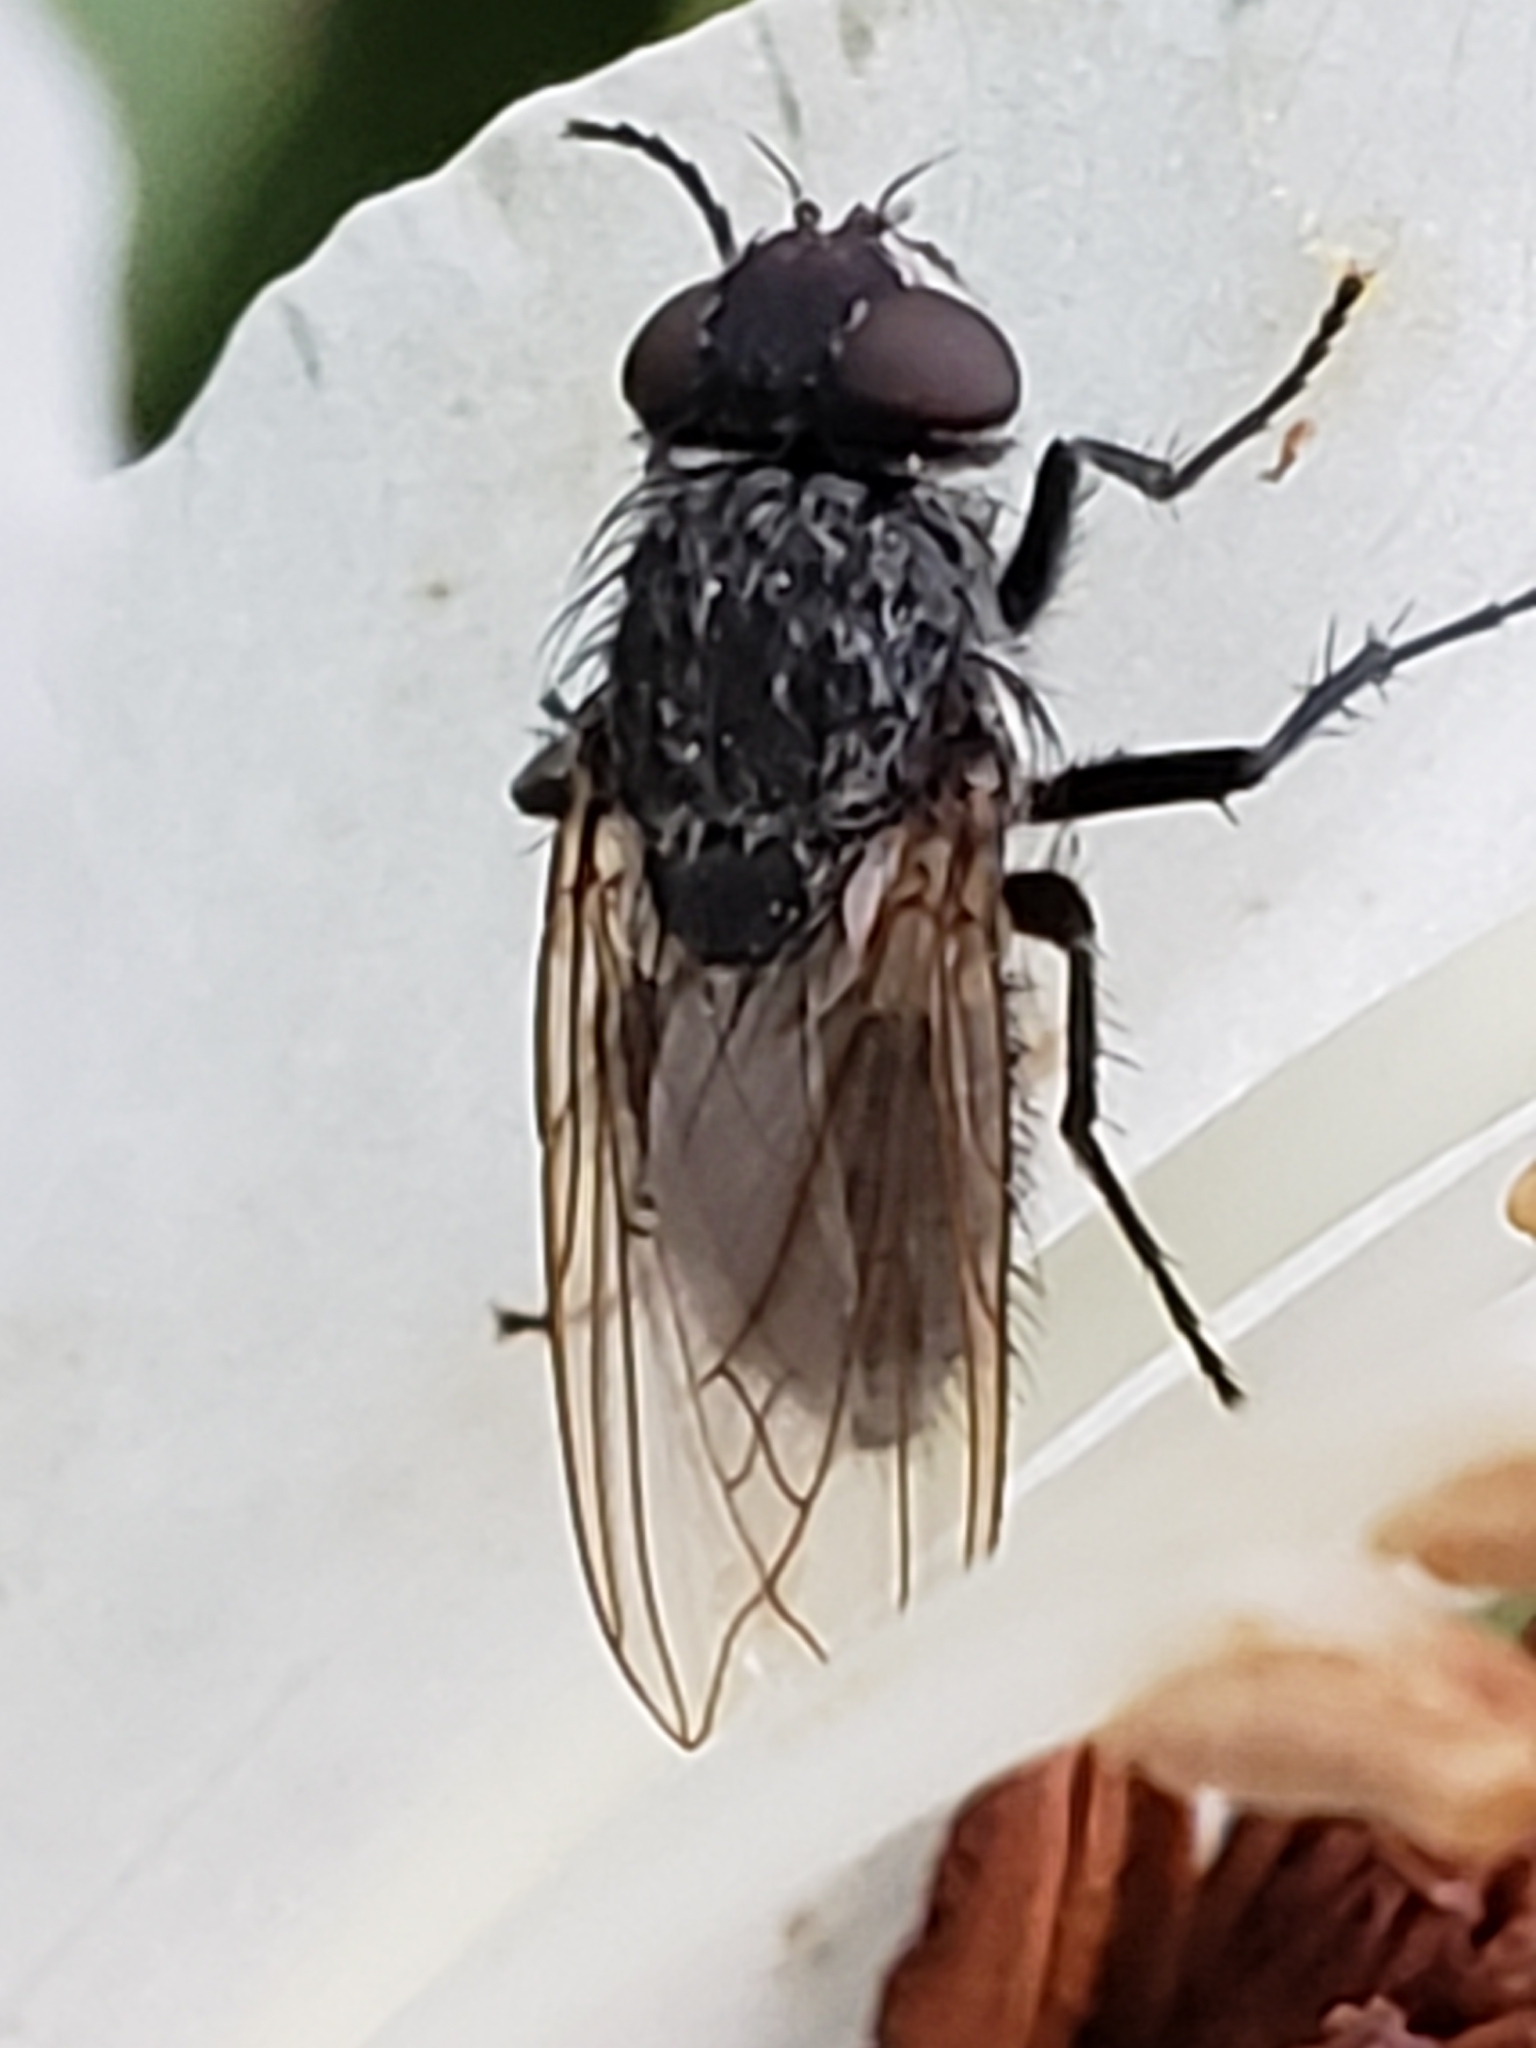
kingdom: Animalia
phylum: Arthropoda
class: Insecta
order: Diptera
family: Polleniidae
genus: Pollenia
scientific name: Pollenia
